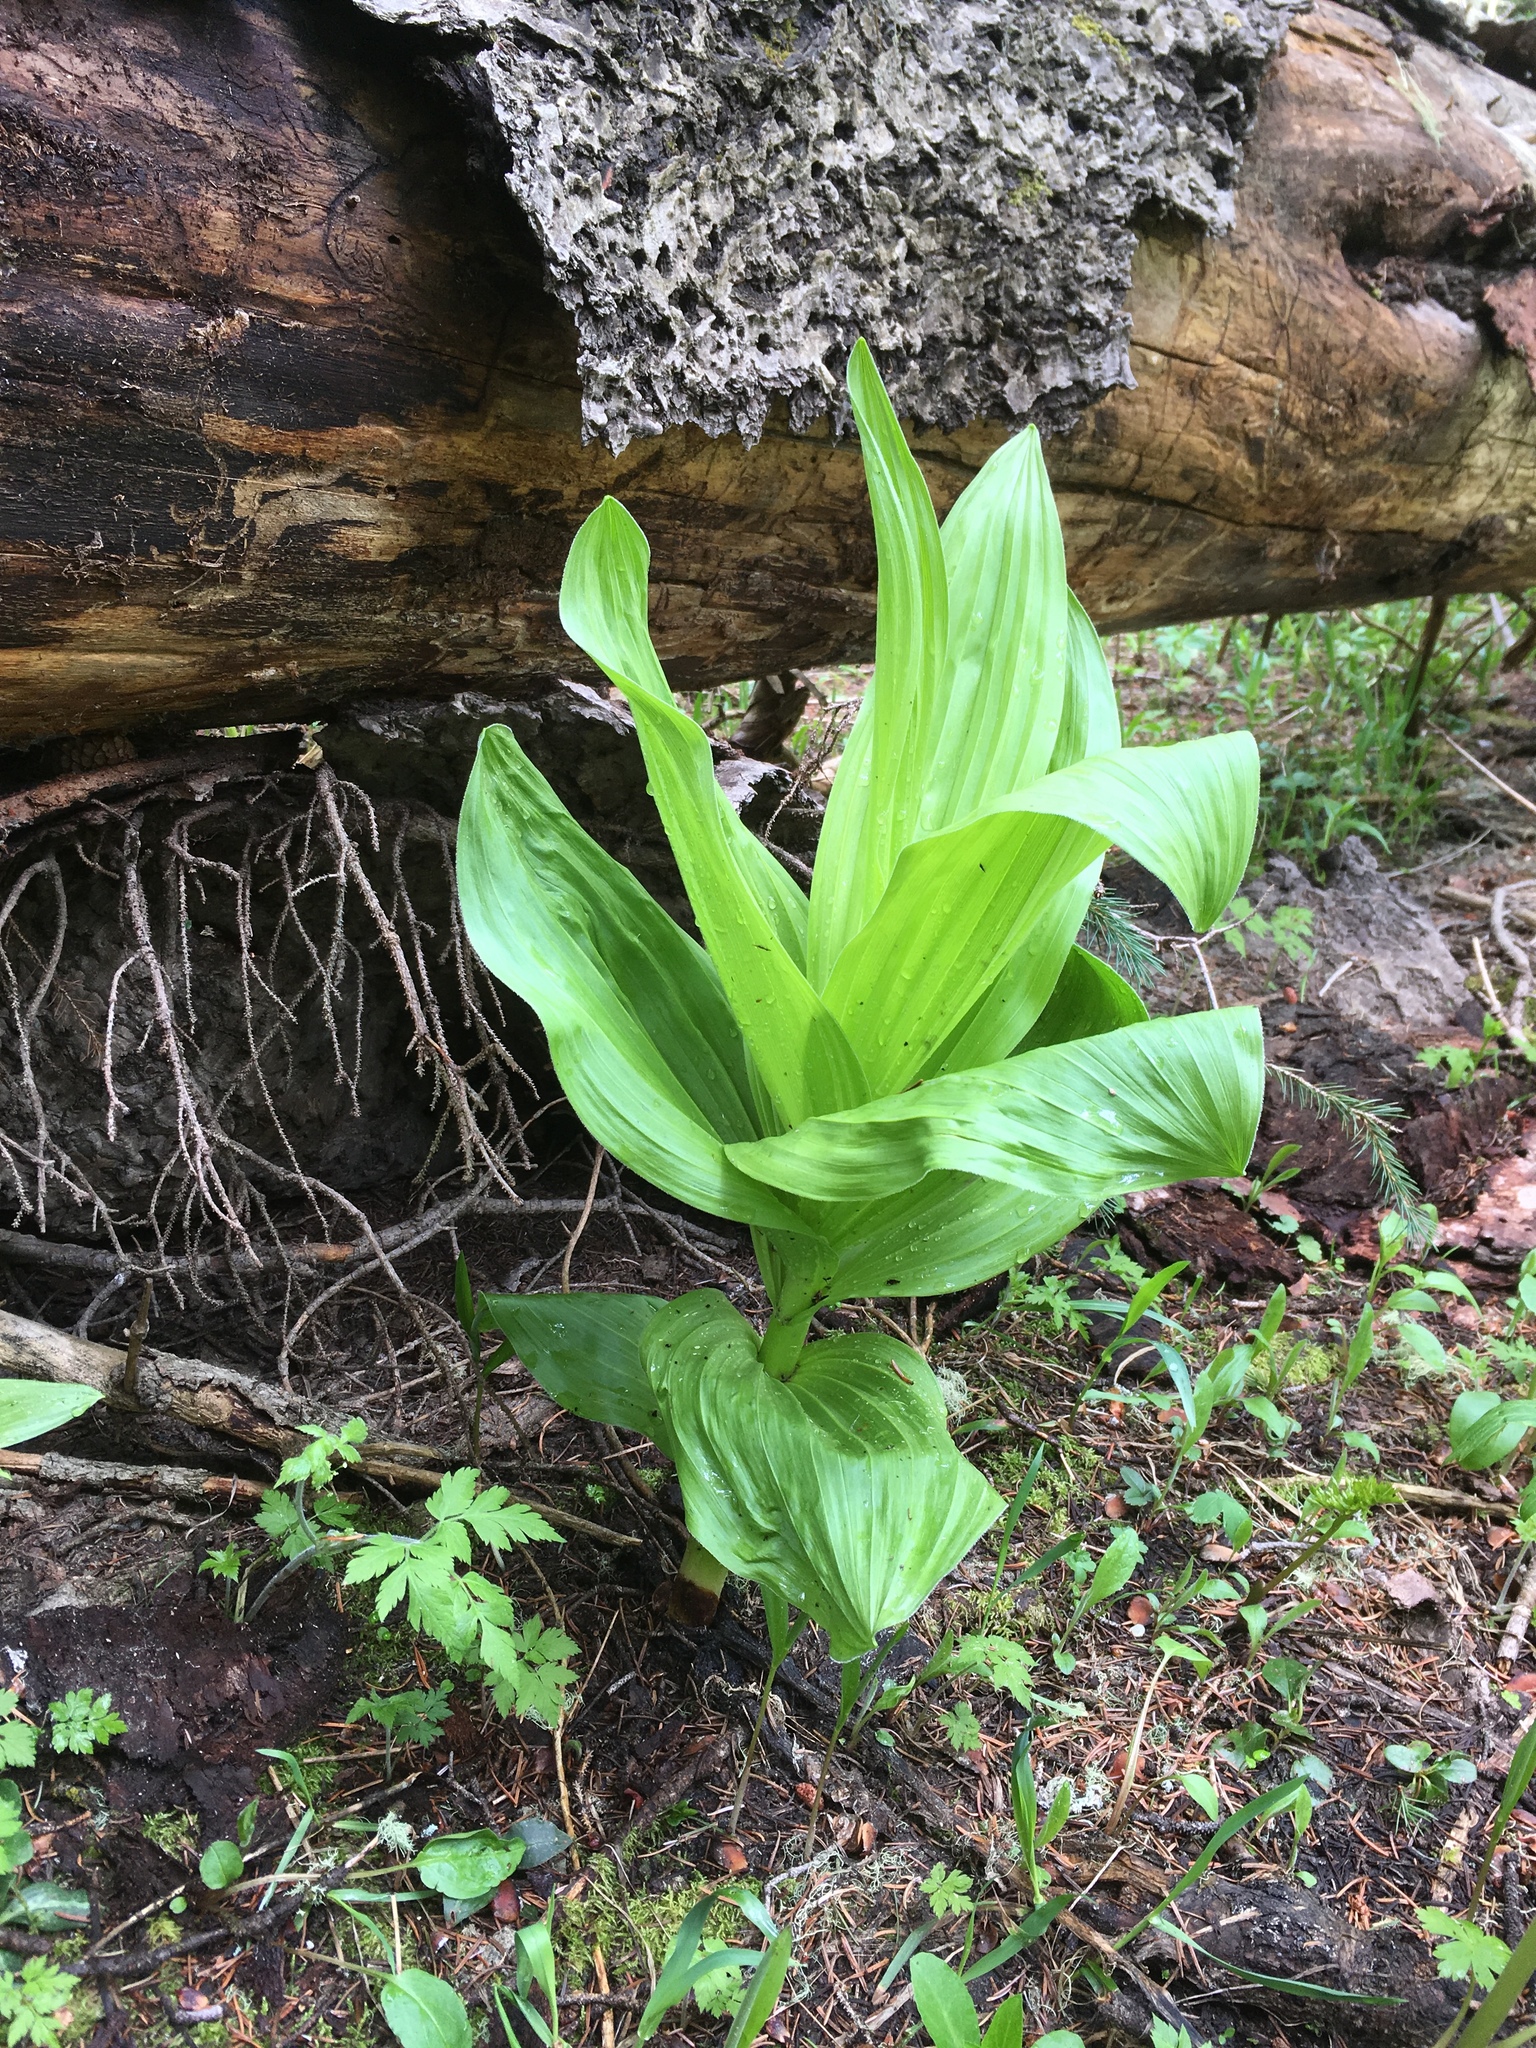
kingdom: Plantae
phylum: Tracheophyta
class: Liliopsida
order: Liliales
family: Melanthiaceae
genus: Veratrum
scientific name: Veratrum californicum
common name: California veratrum
